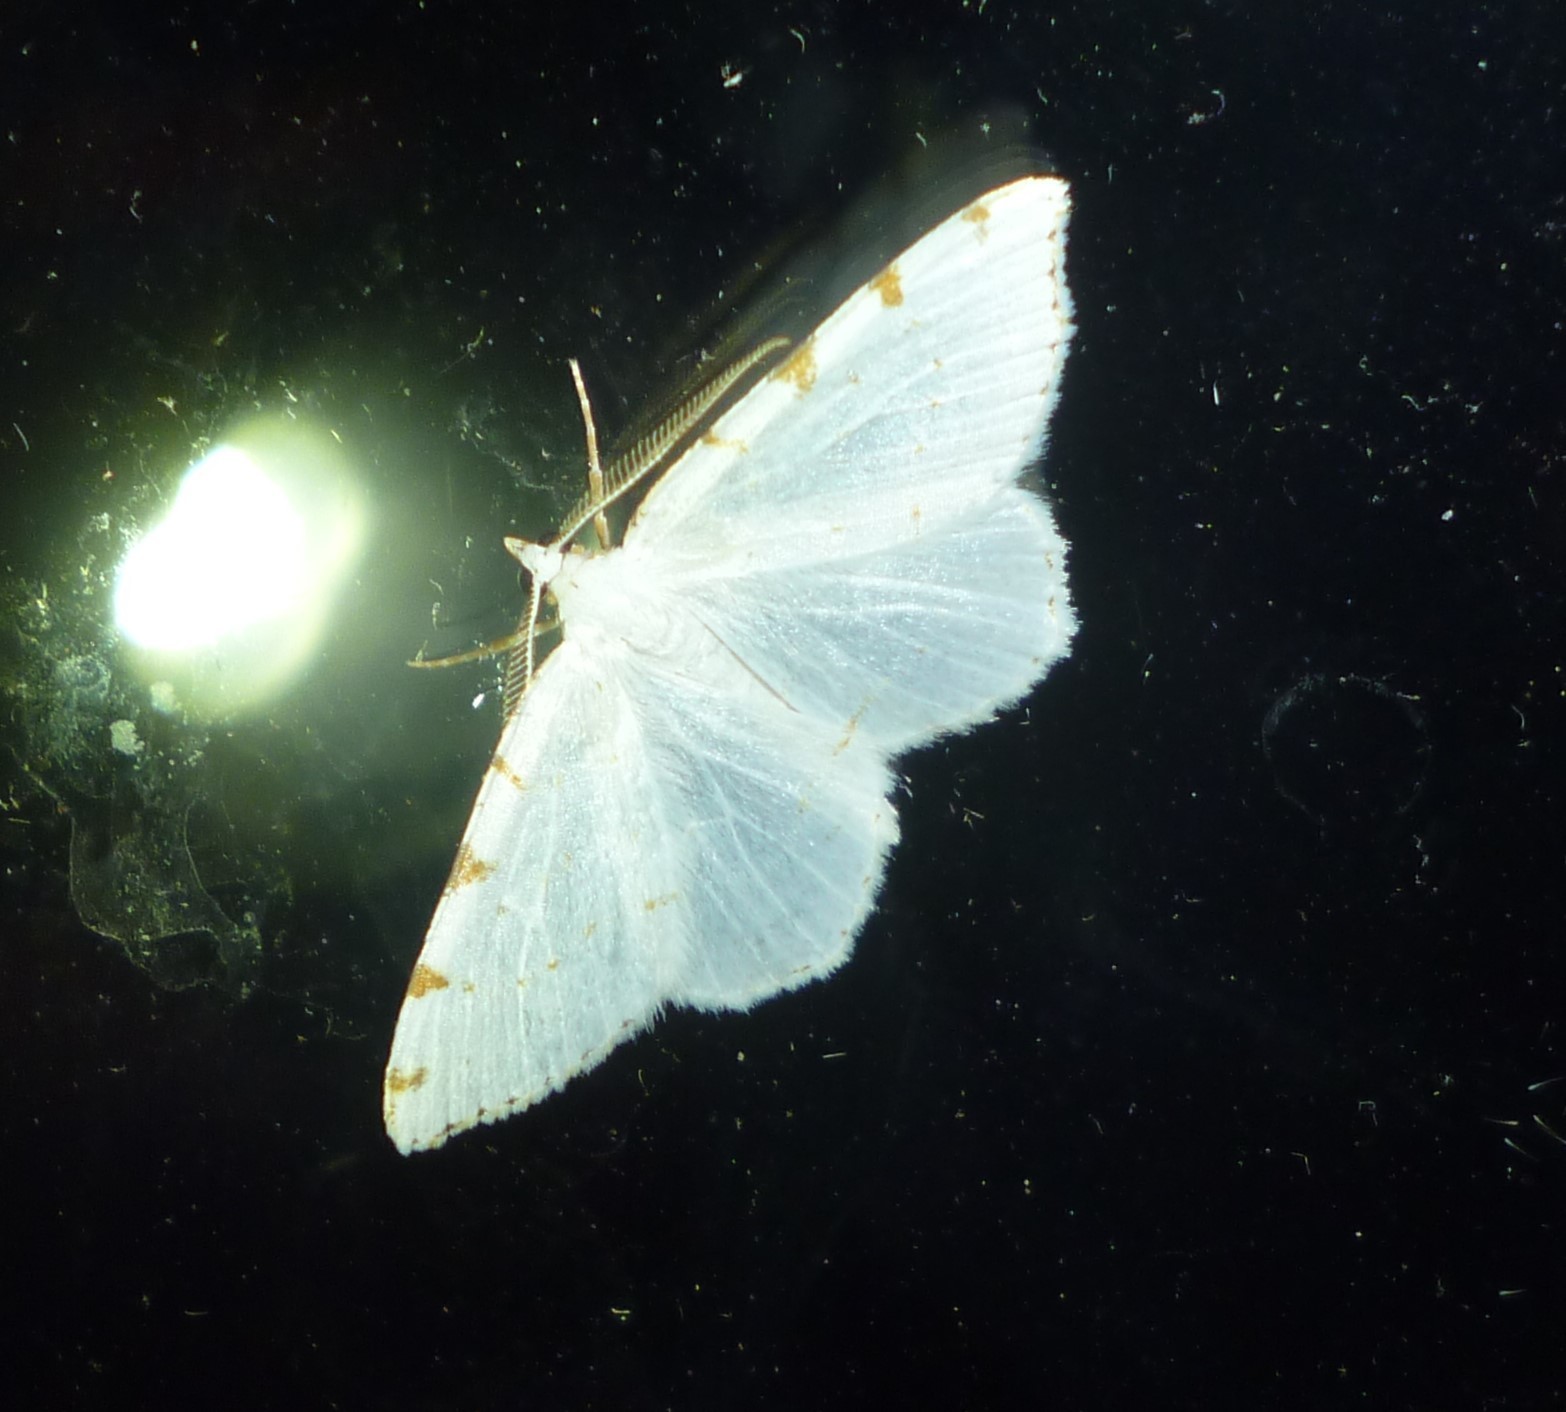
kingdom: Animalia
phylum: Arthropoda
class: Insecta
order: Lepidoptera
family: Geometridae
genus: Macaria
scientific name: Macaria pustularia
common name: Lesser maple spanworm moth
